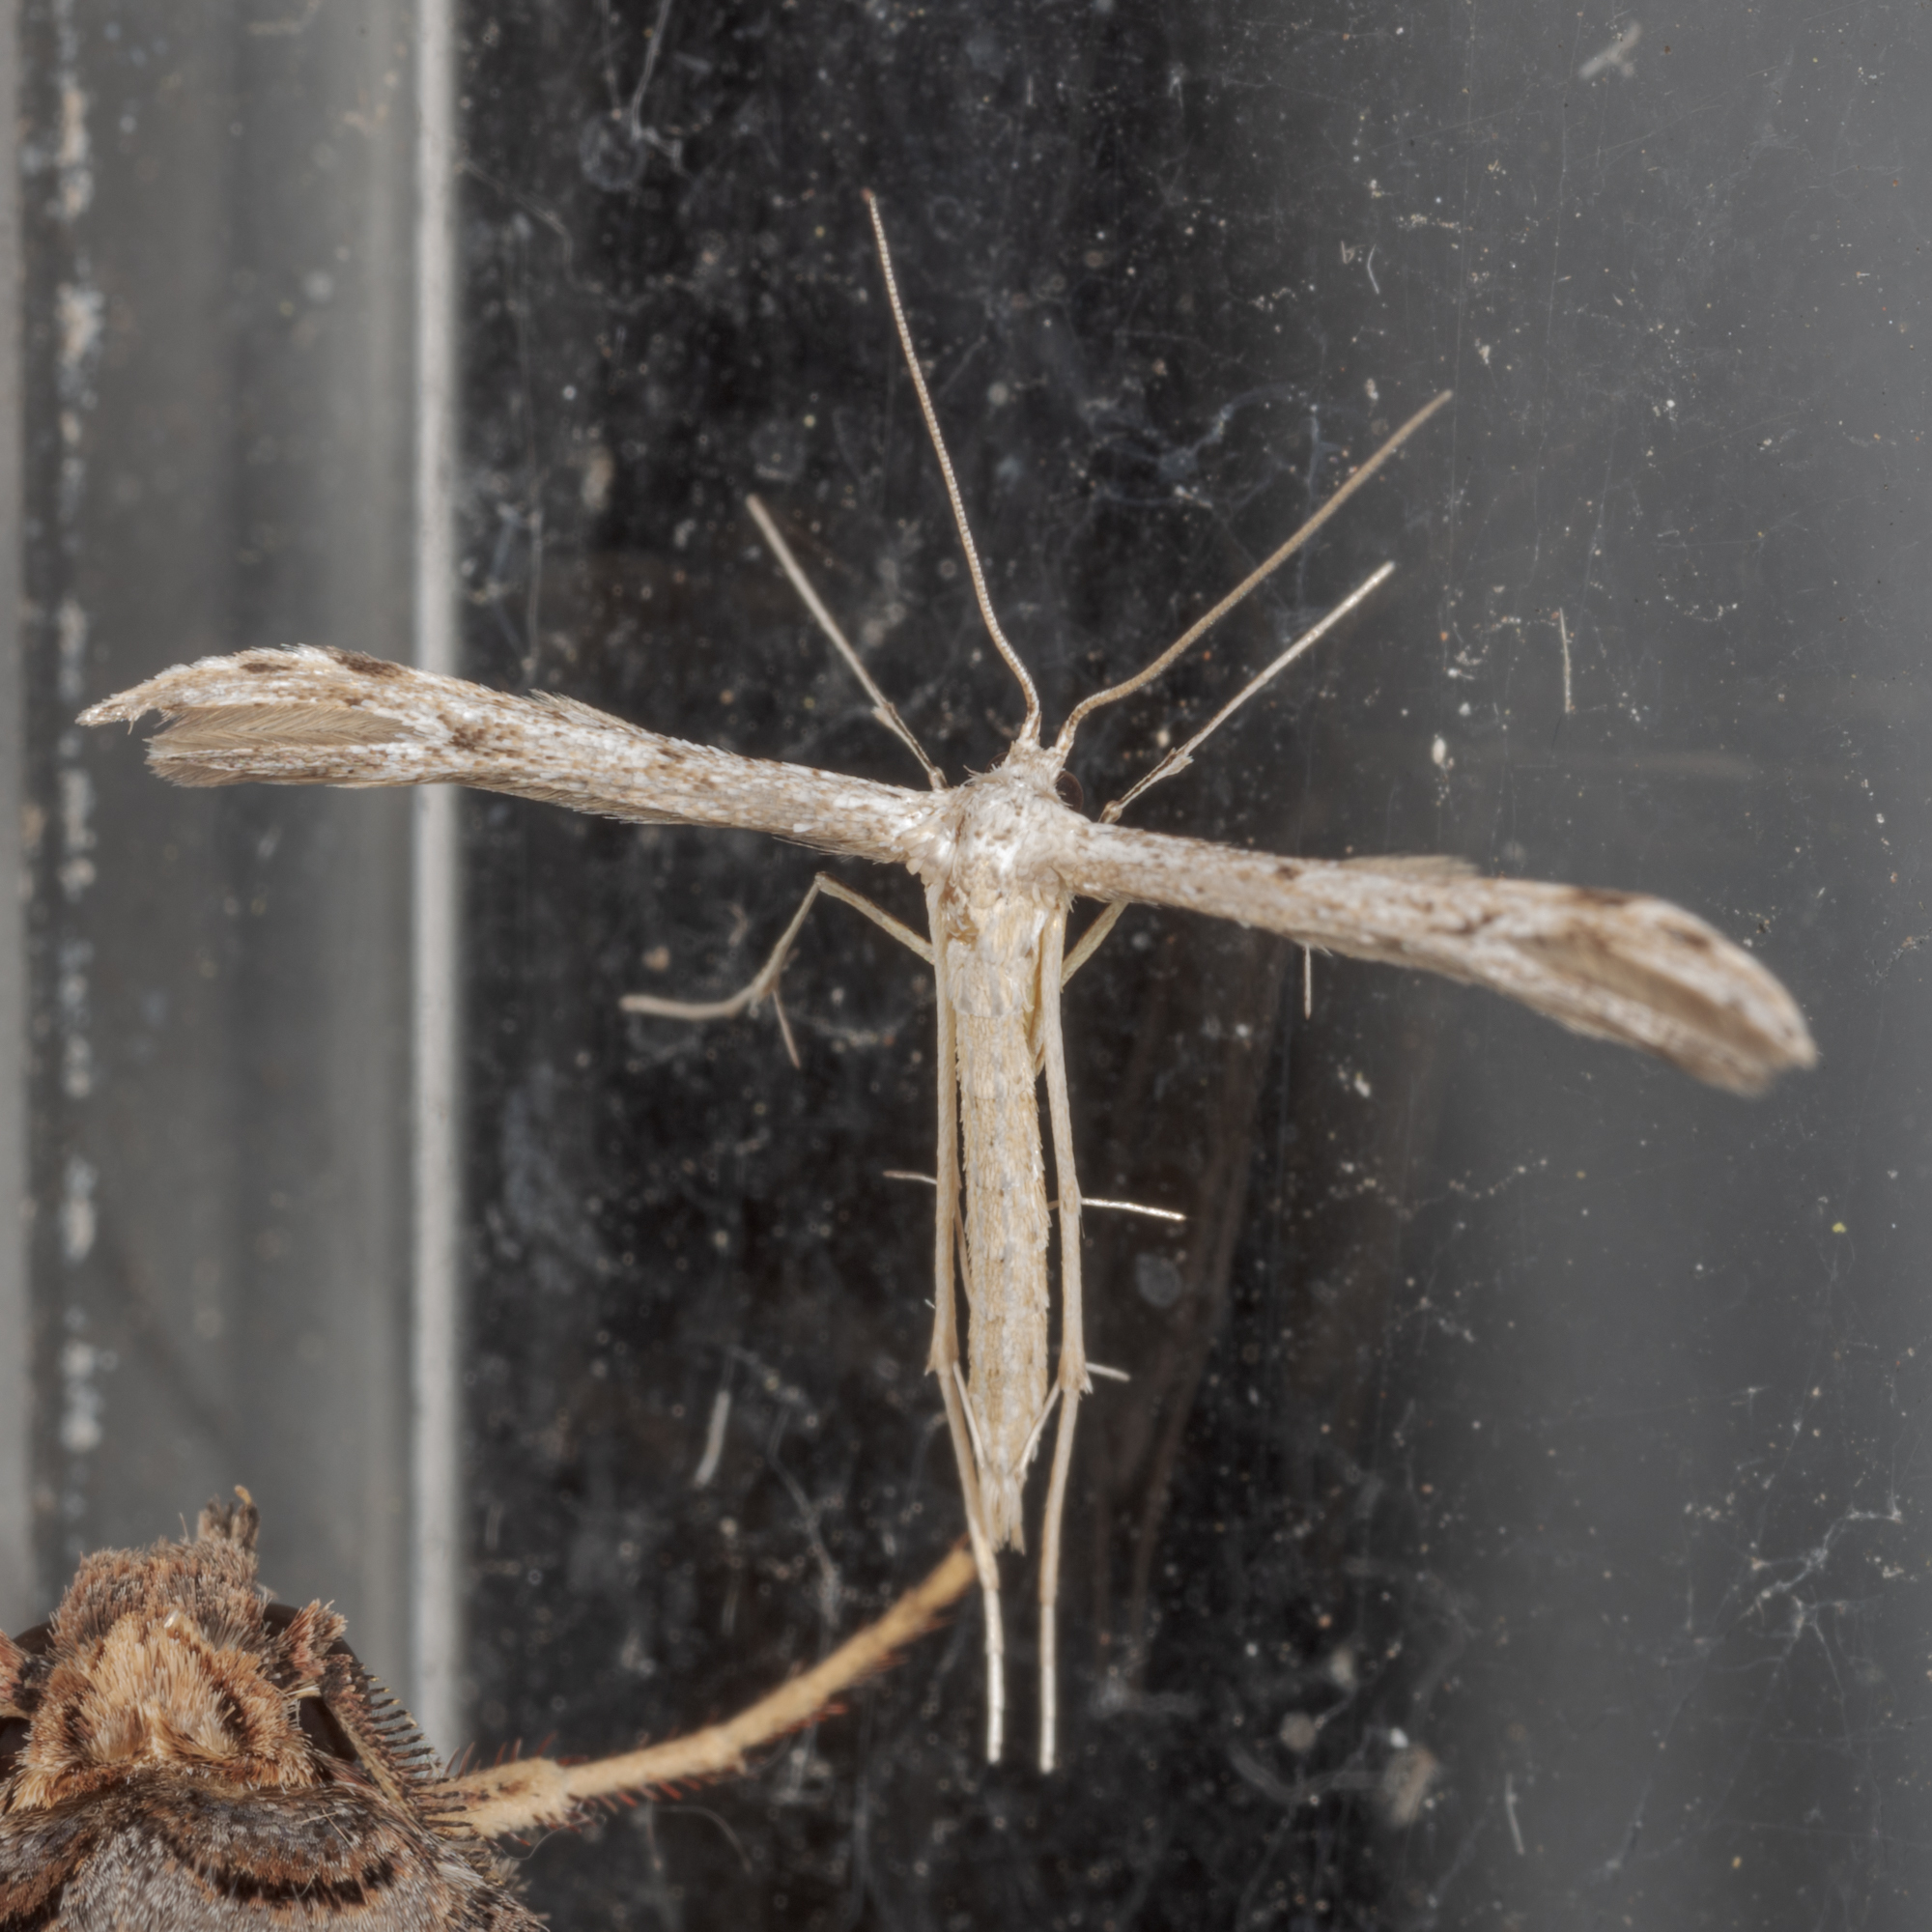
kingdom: Animalia
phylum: Arthropoda
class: Insecta
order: Lepidoptera
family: Pterophoridae
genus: Pselnophorus
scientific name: Pselnophorus belfragei
